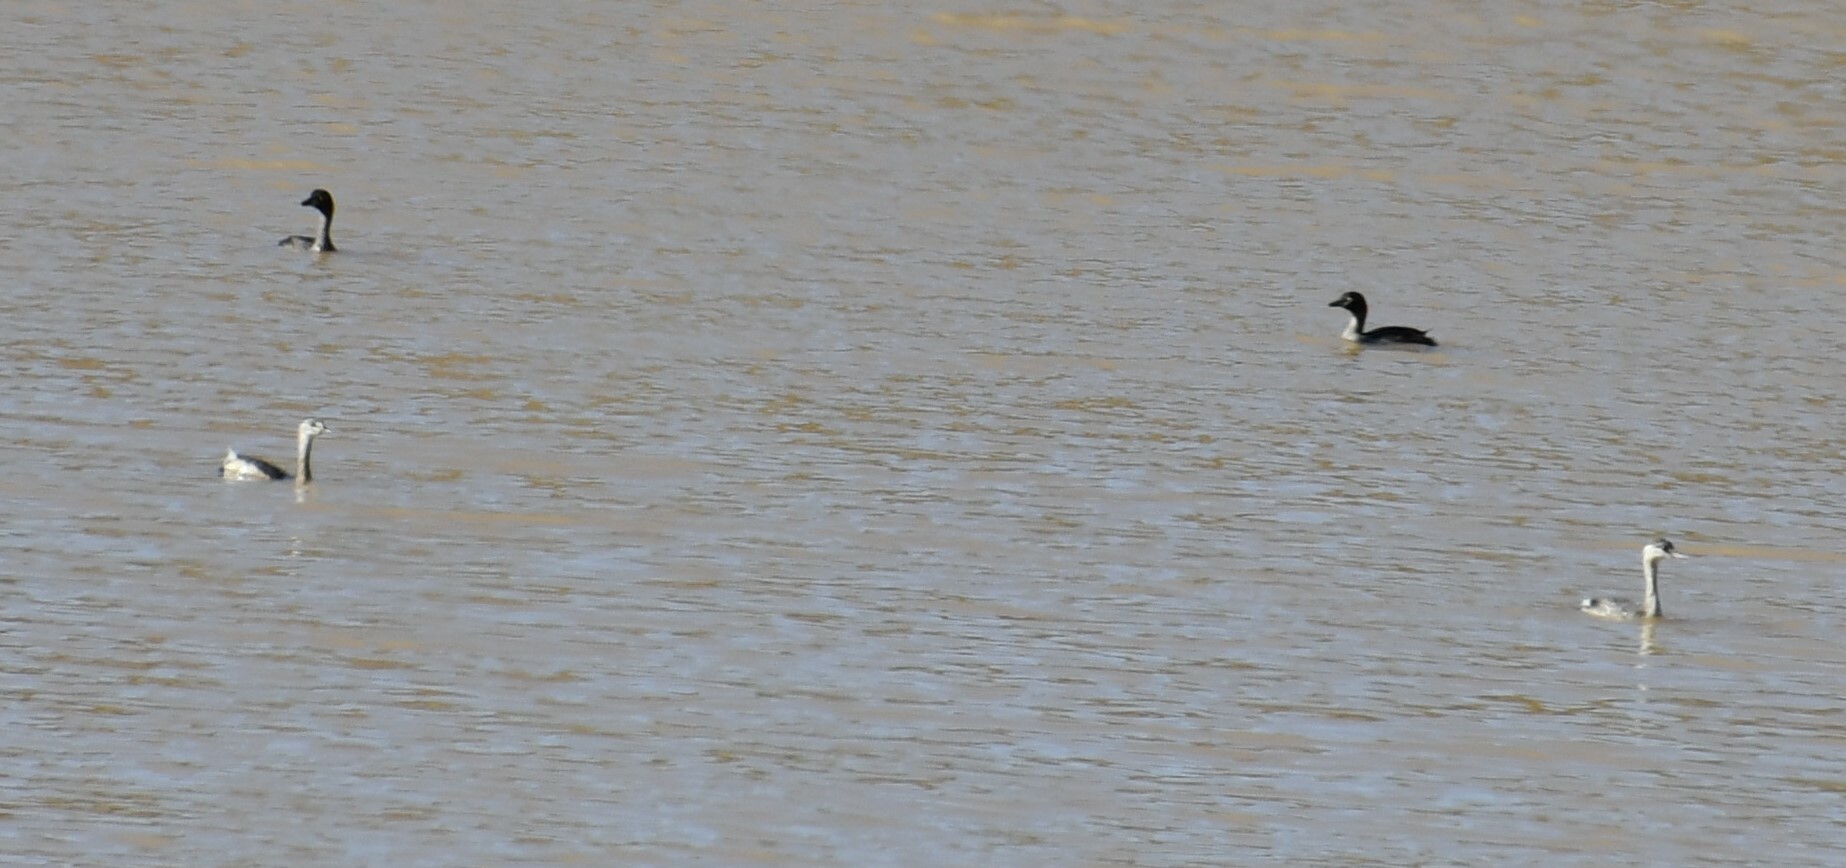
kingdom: Animalia
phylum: Chordata
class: Aves
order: Podicipediformes
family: Podicipedidae
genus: Tachybaptus
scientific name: Tachybaptus novaehollandiae
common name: Australasian grebe
